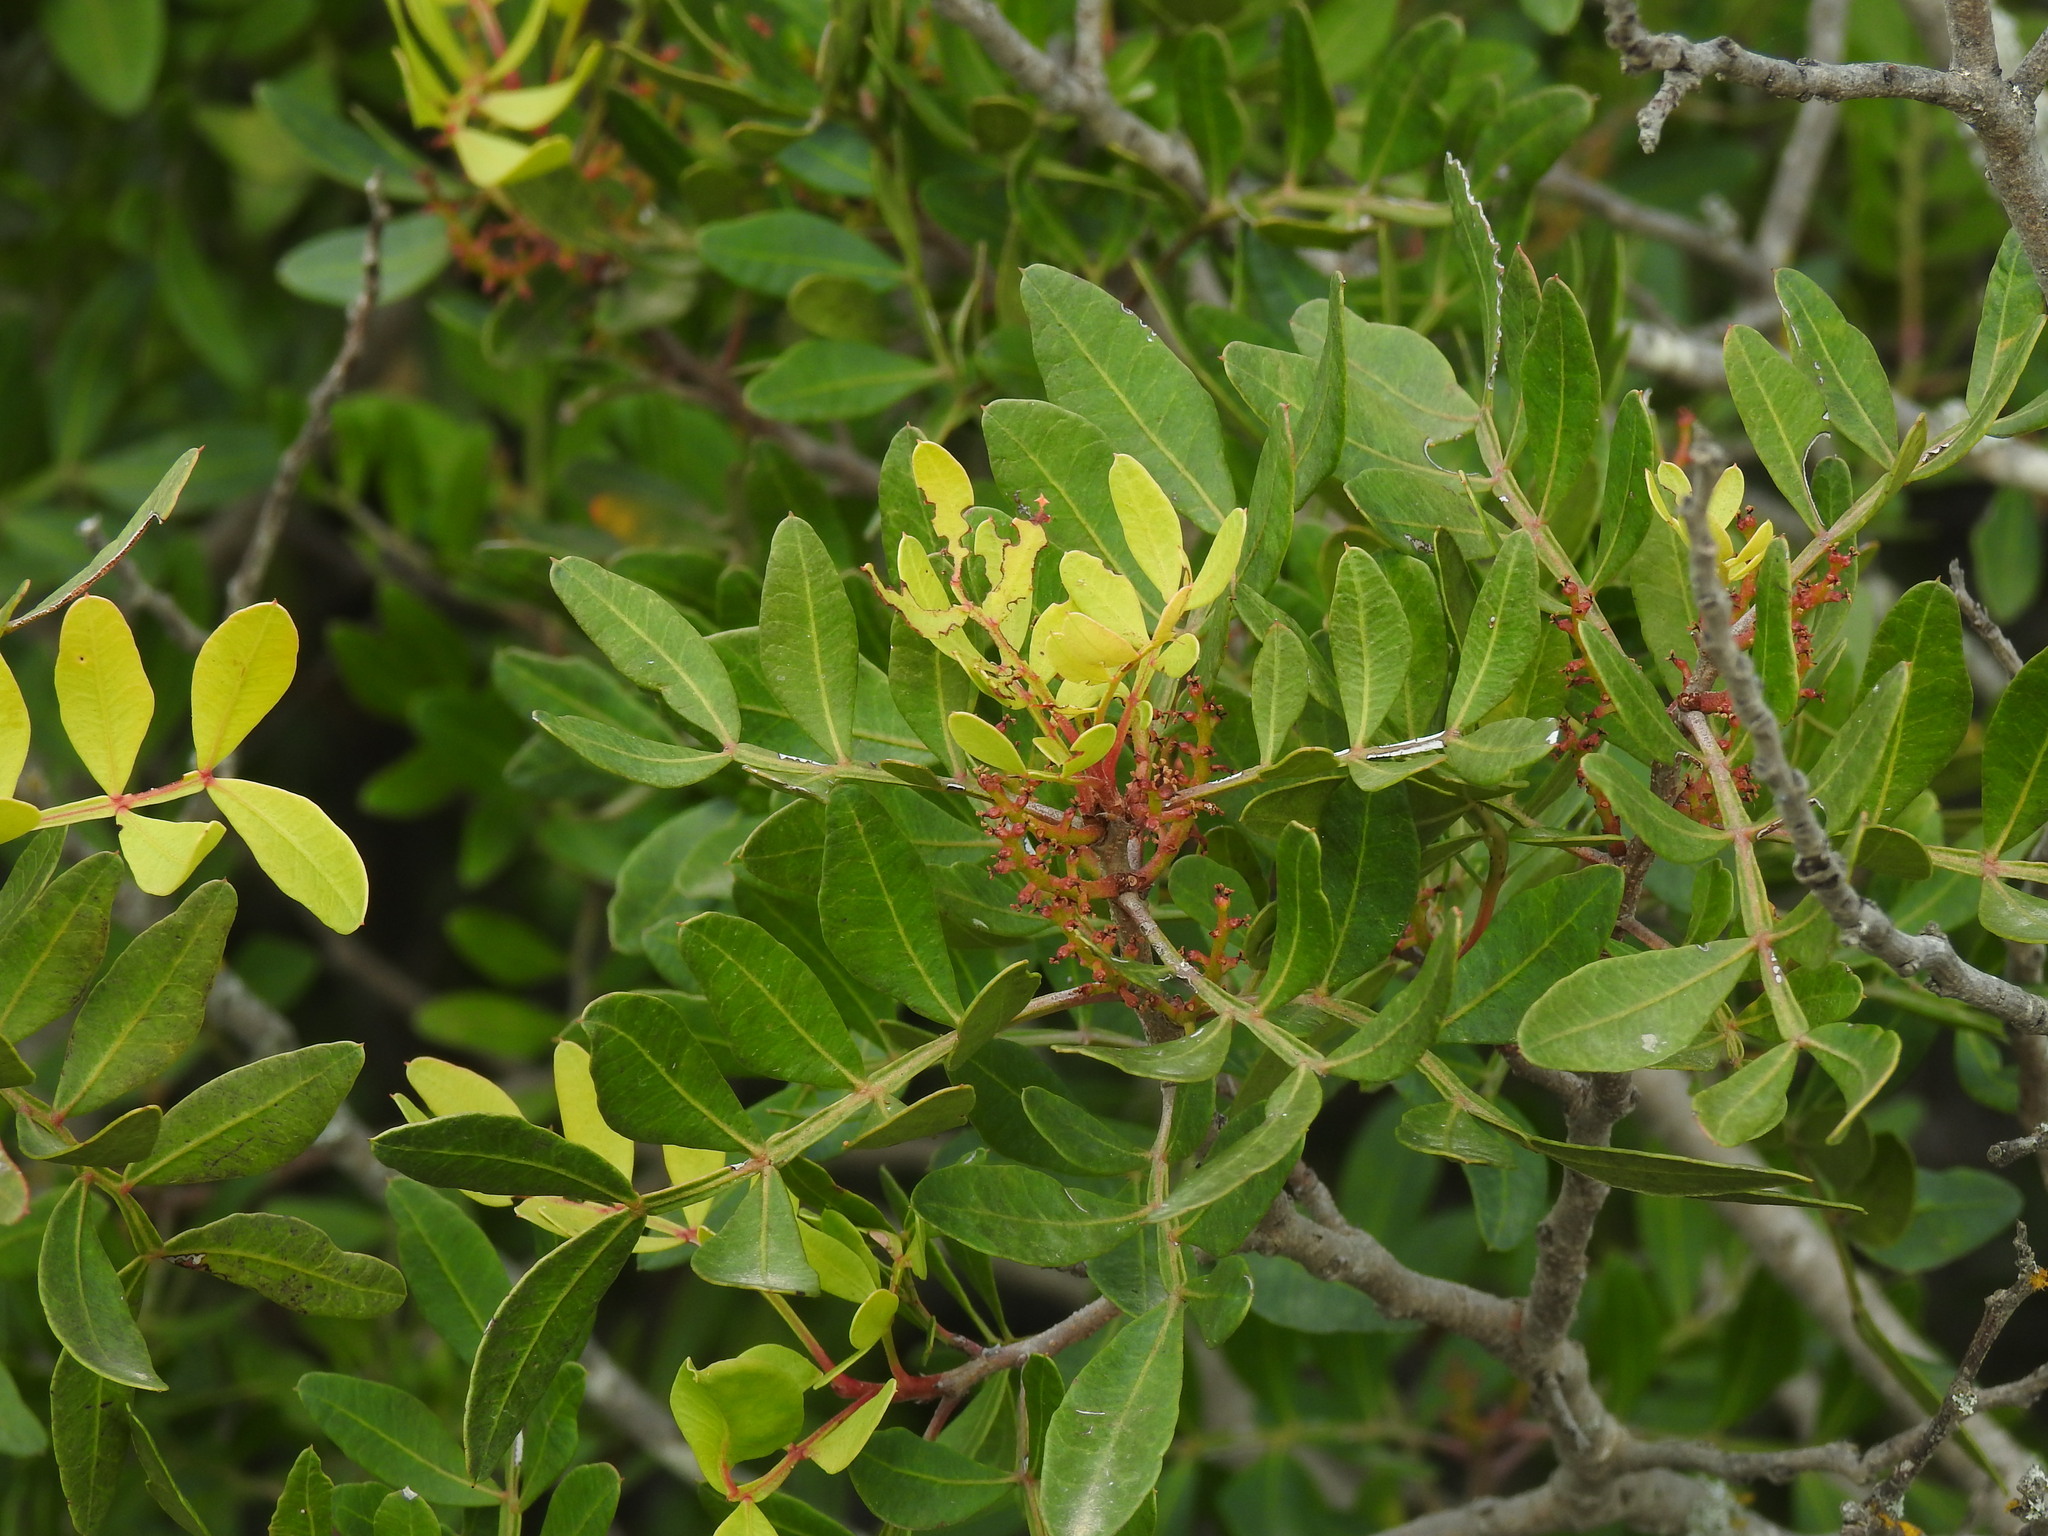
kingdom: Plantae
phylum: Tracheophyta
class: Magnoliopsida
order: Sapindales
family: Anacardiaceae
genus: Pistacia
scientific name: Pistacia lentiscus
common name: Lentisk
